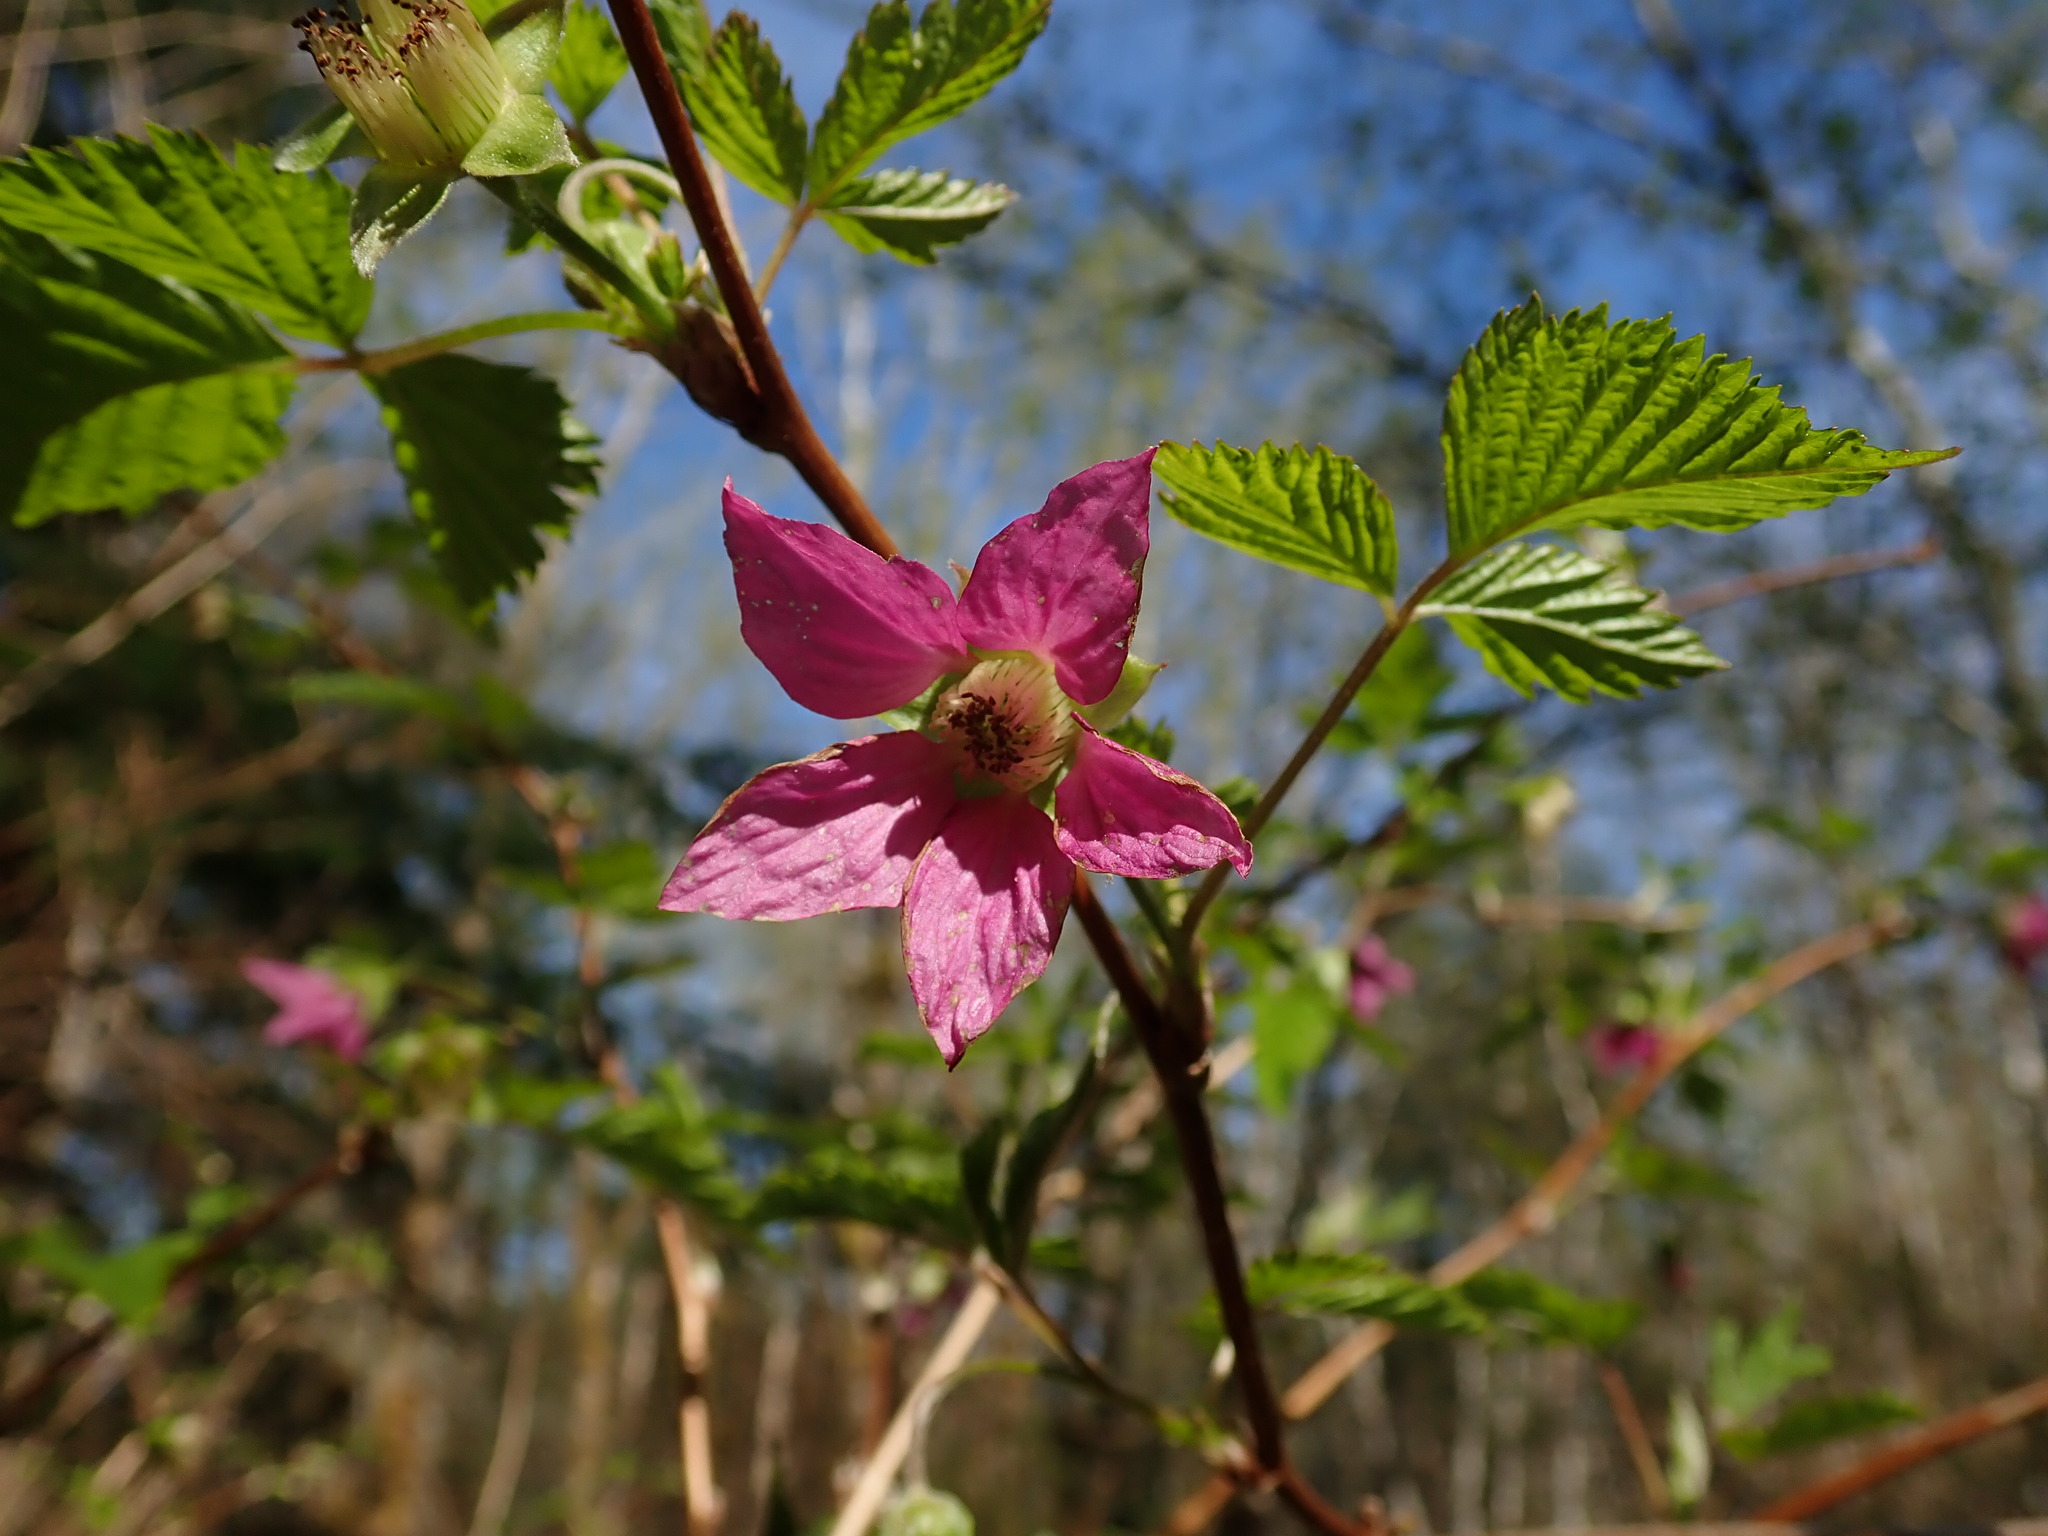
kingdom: Plantae
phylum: Tracheophyta
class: Magnoliopsida
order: Rosales
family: Rosaceae
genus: Rubus
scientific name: Rubus spectabilis
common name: Salmonberry
